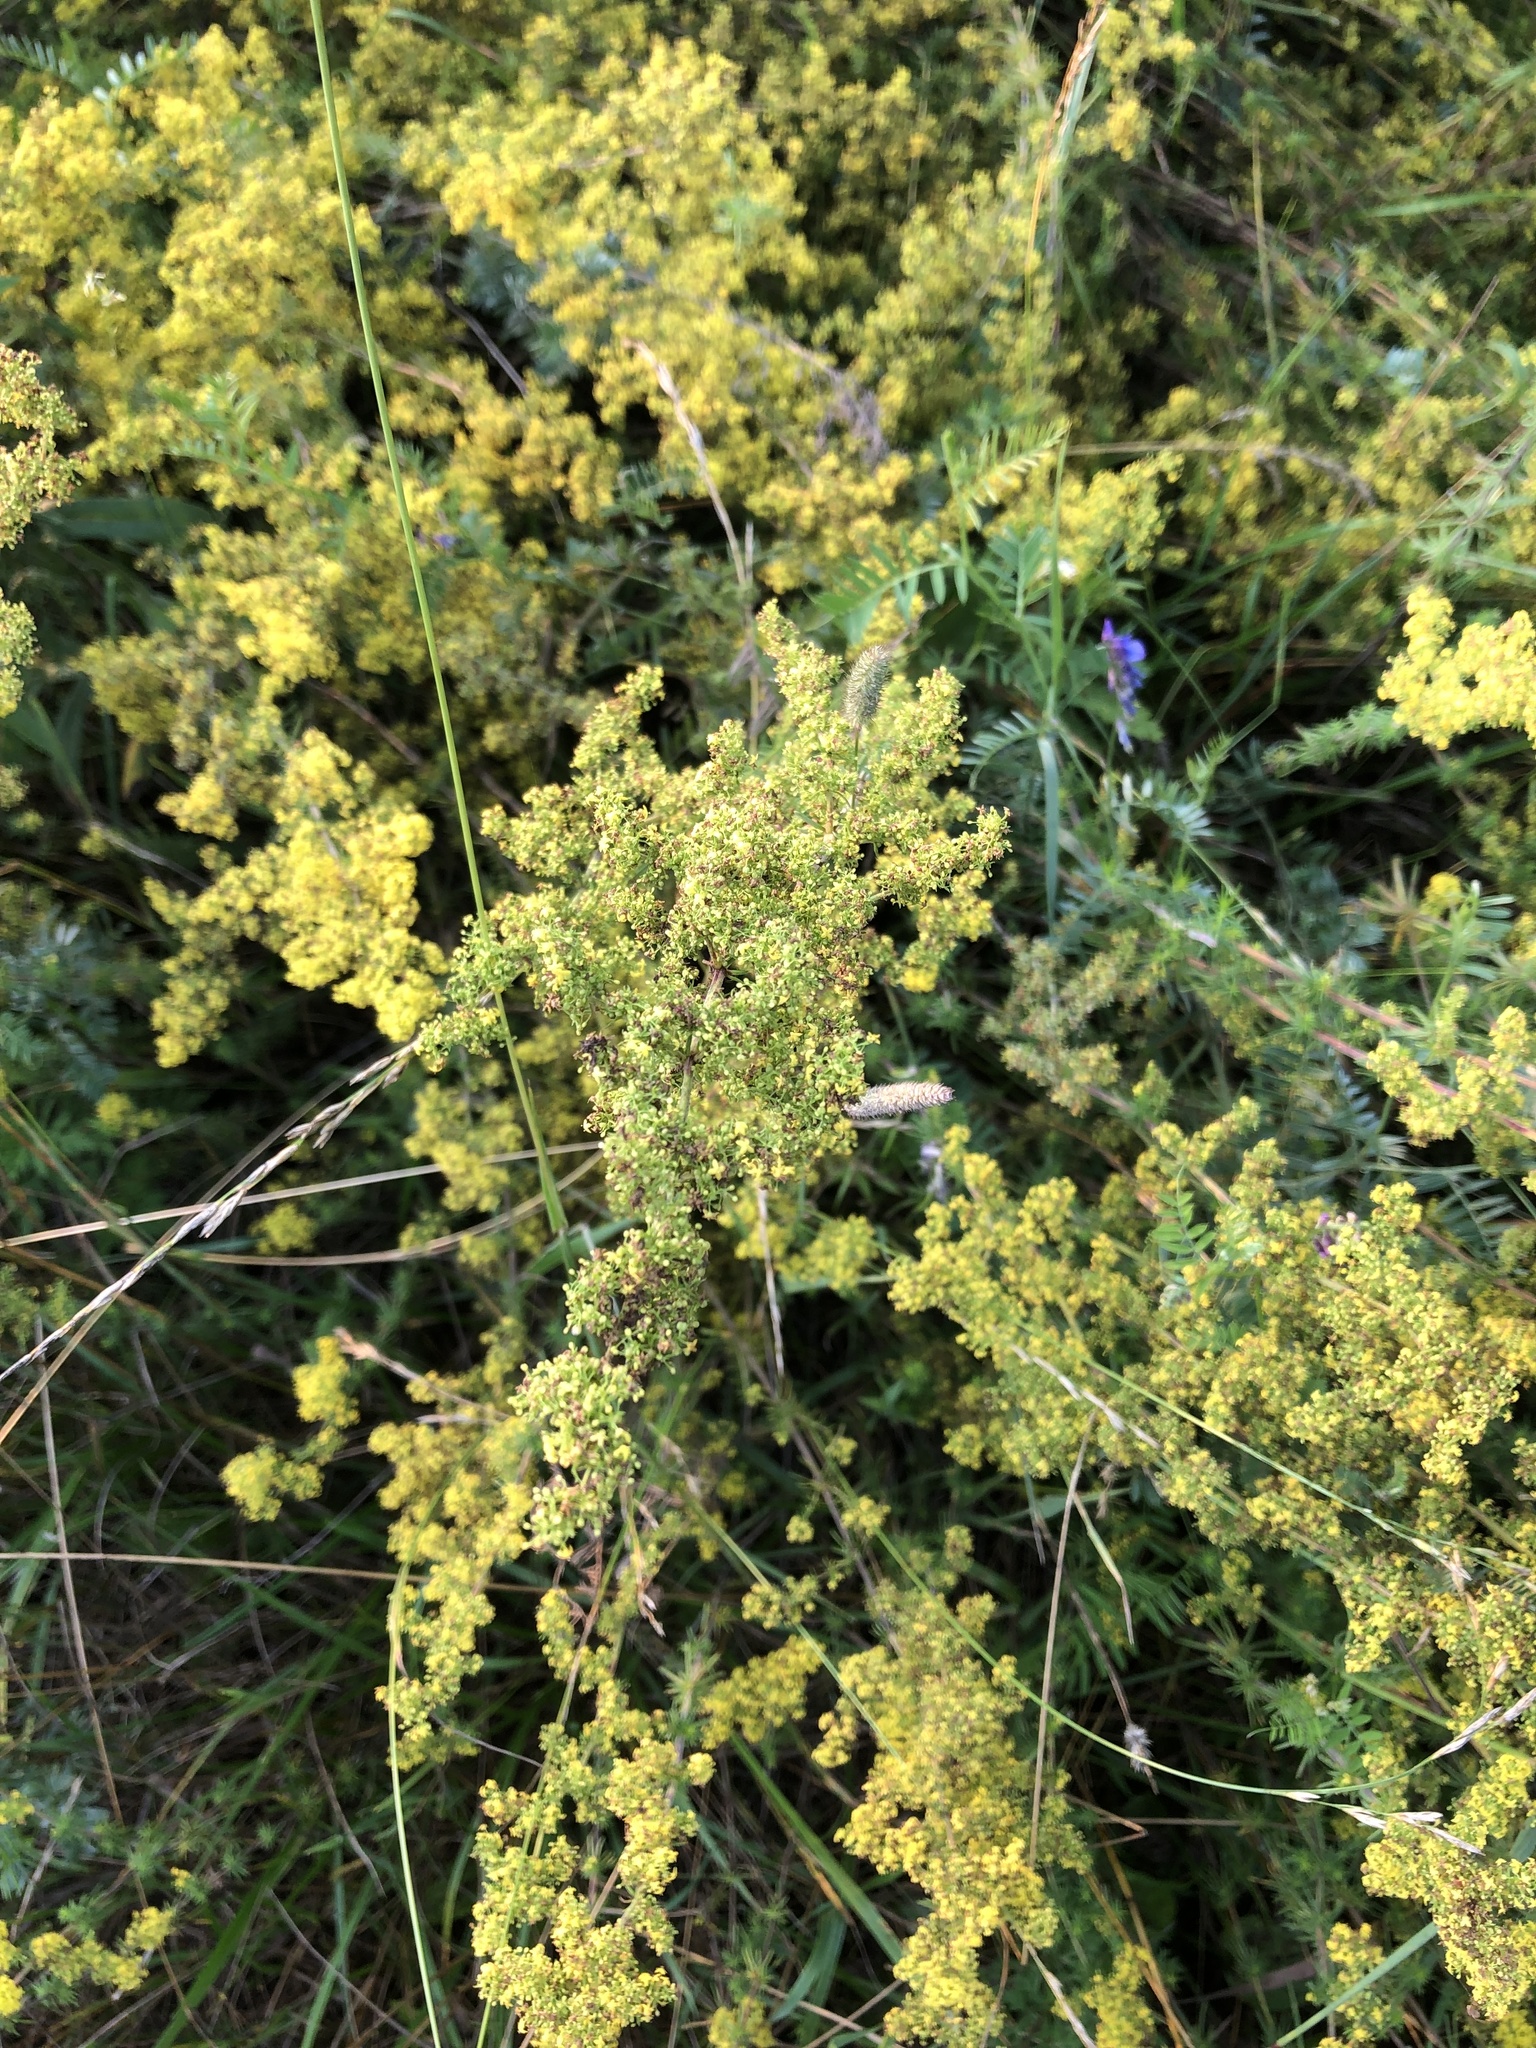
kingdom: Plantae
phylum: Tracheophyta
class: Magnoliopsida
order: Gentianales
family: Rubiaceae
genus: Galium
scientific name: Galium verum
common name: Lady's bedstraw
